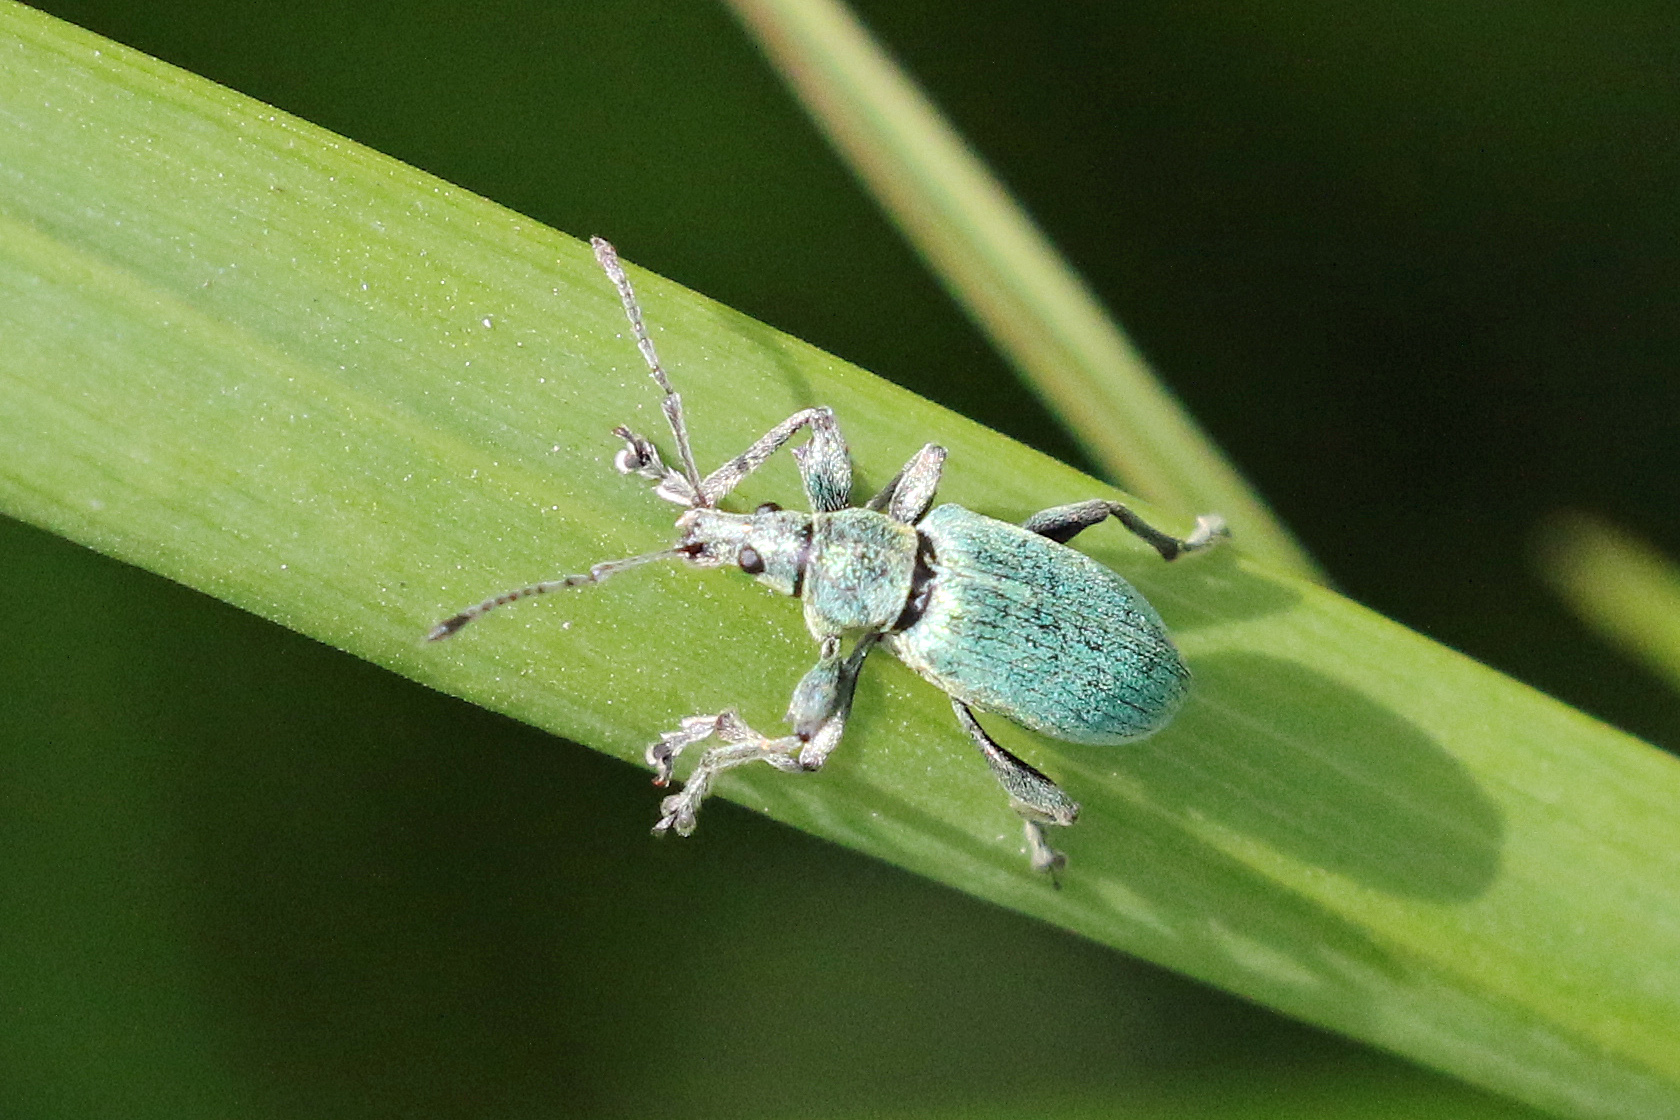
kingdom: Animalia
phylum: Arthropoda
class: Insecta
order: Coleoptera
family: Curculionidae
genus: Phyllobius
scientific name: Phyllobius pomaceus
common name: Green nettle weevil
